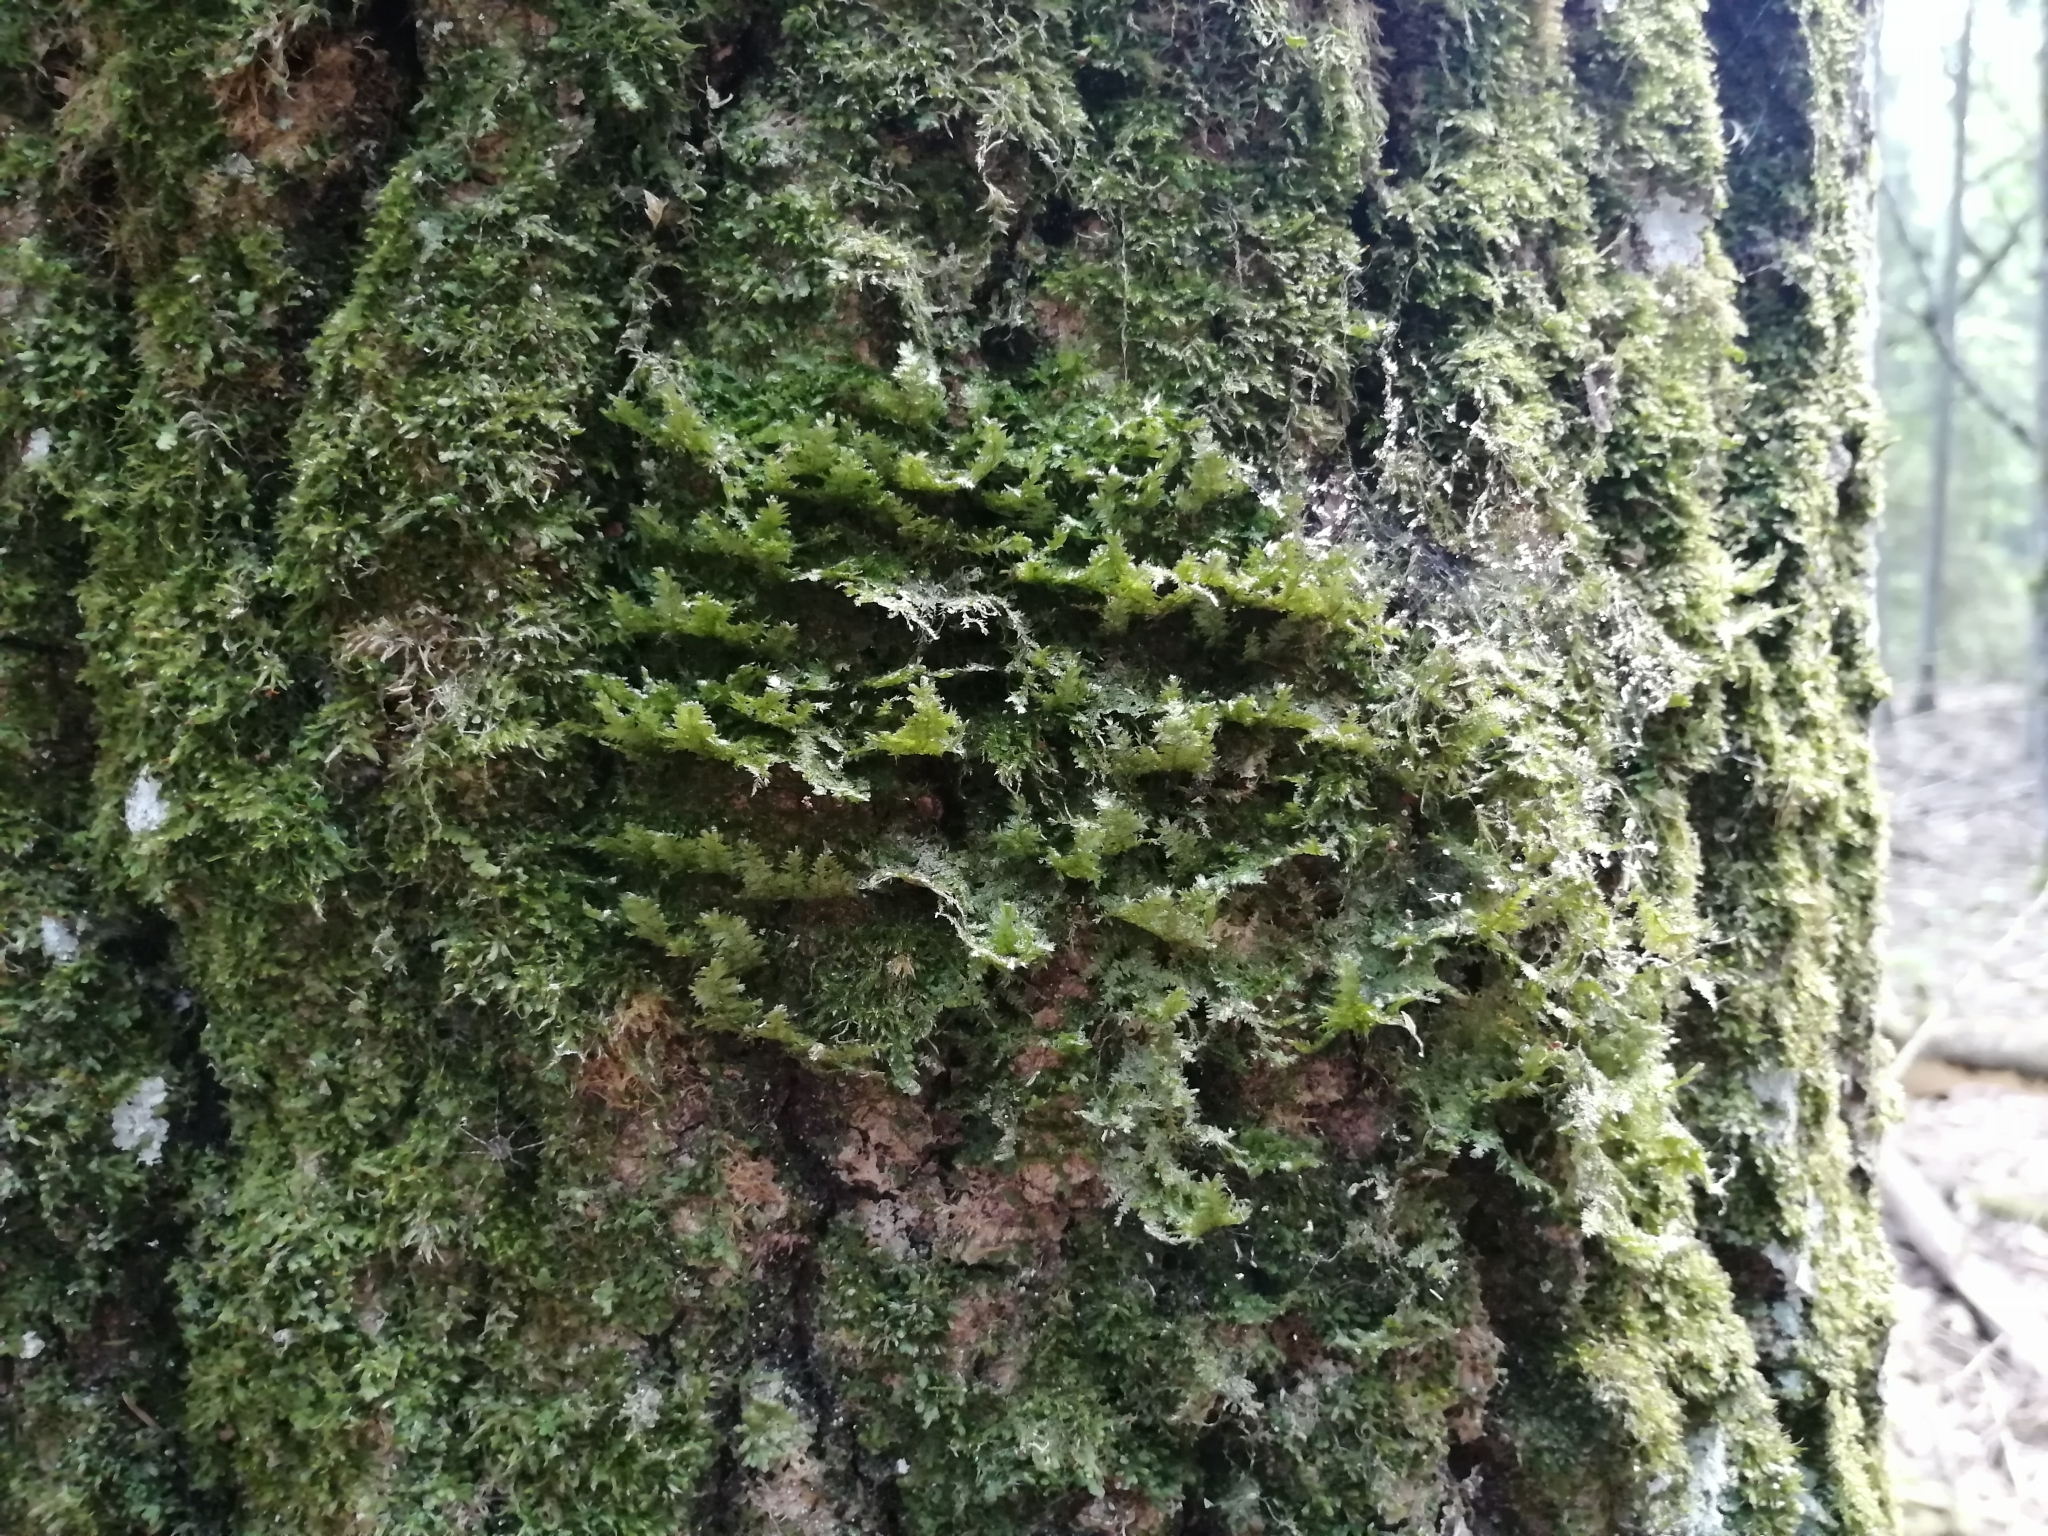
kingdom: Plantae
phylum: Bryophyta
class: Bryopsida
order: Hypnales
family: Neckeraceae
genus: Neckera
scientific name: Neckera pennata
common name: Feathery neckera
